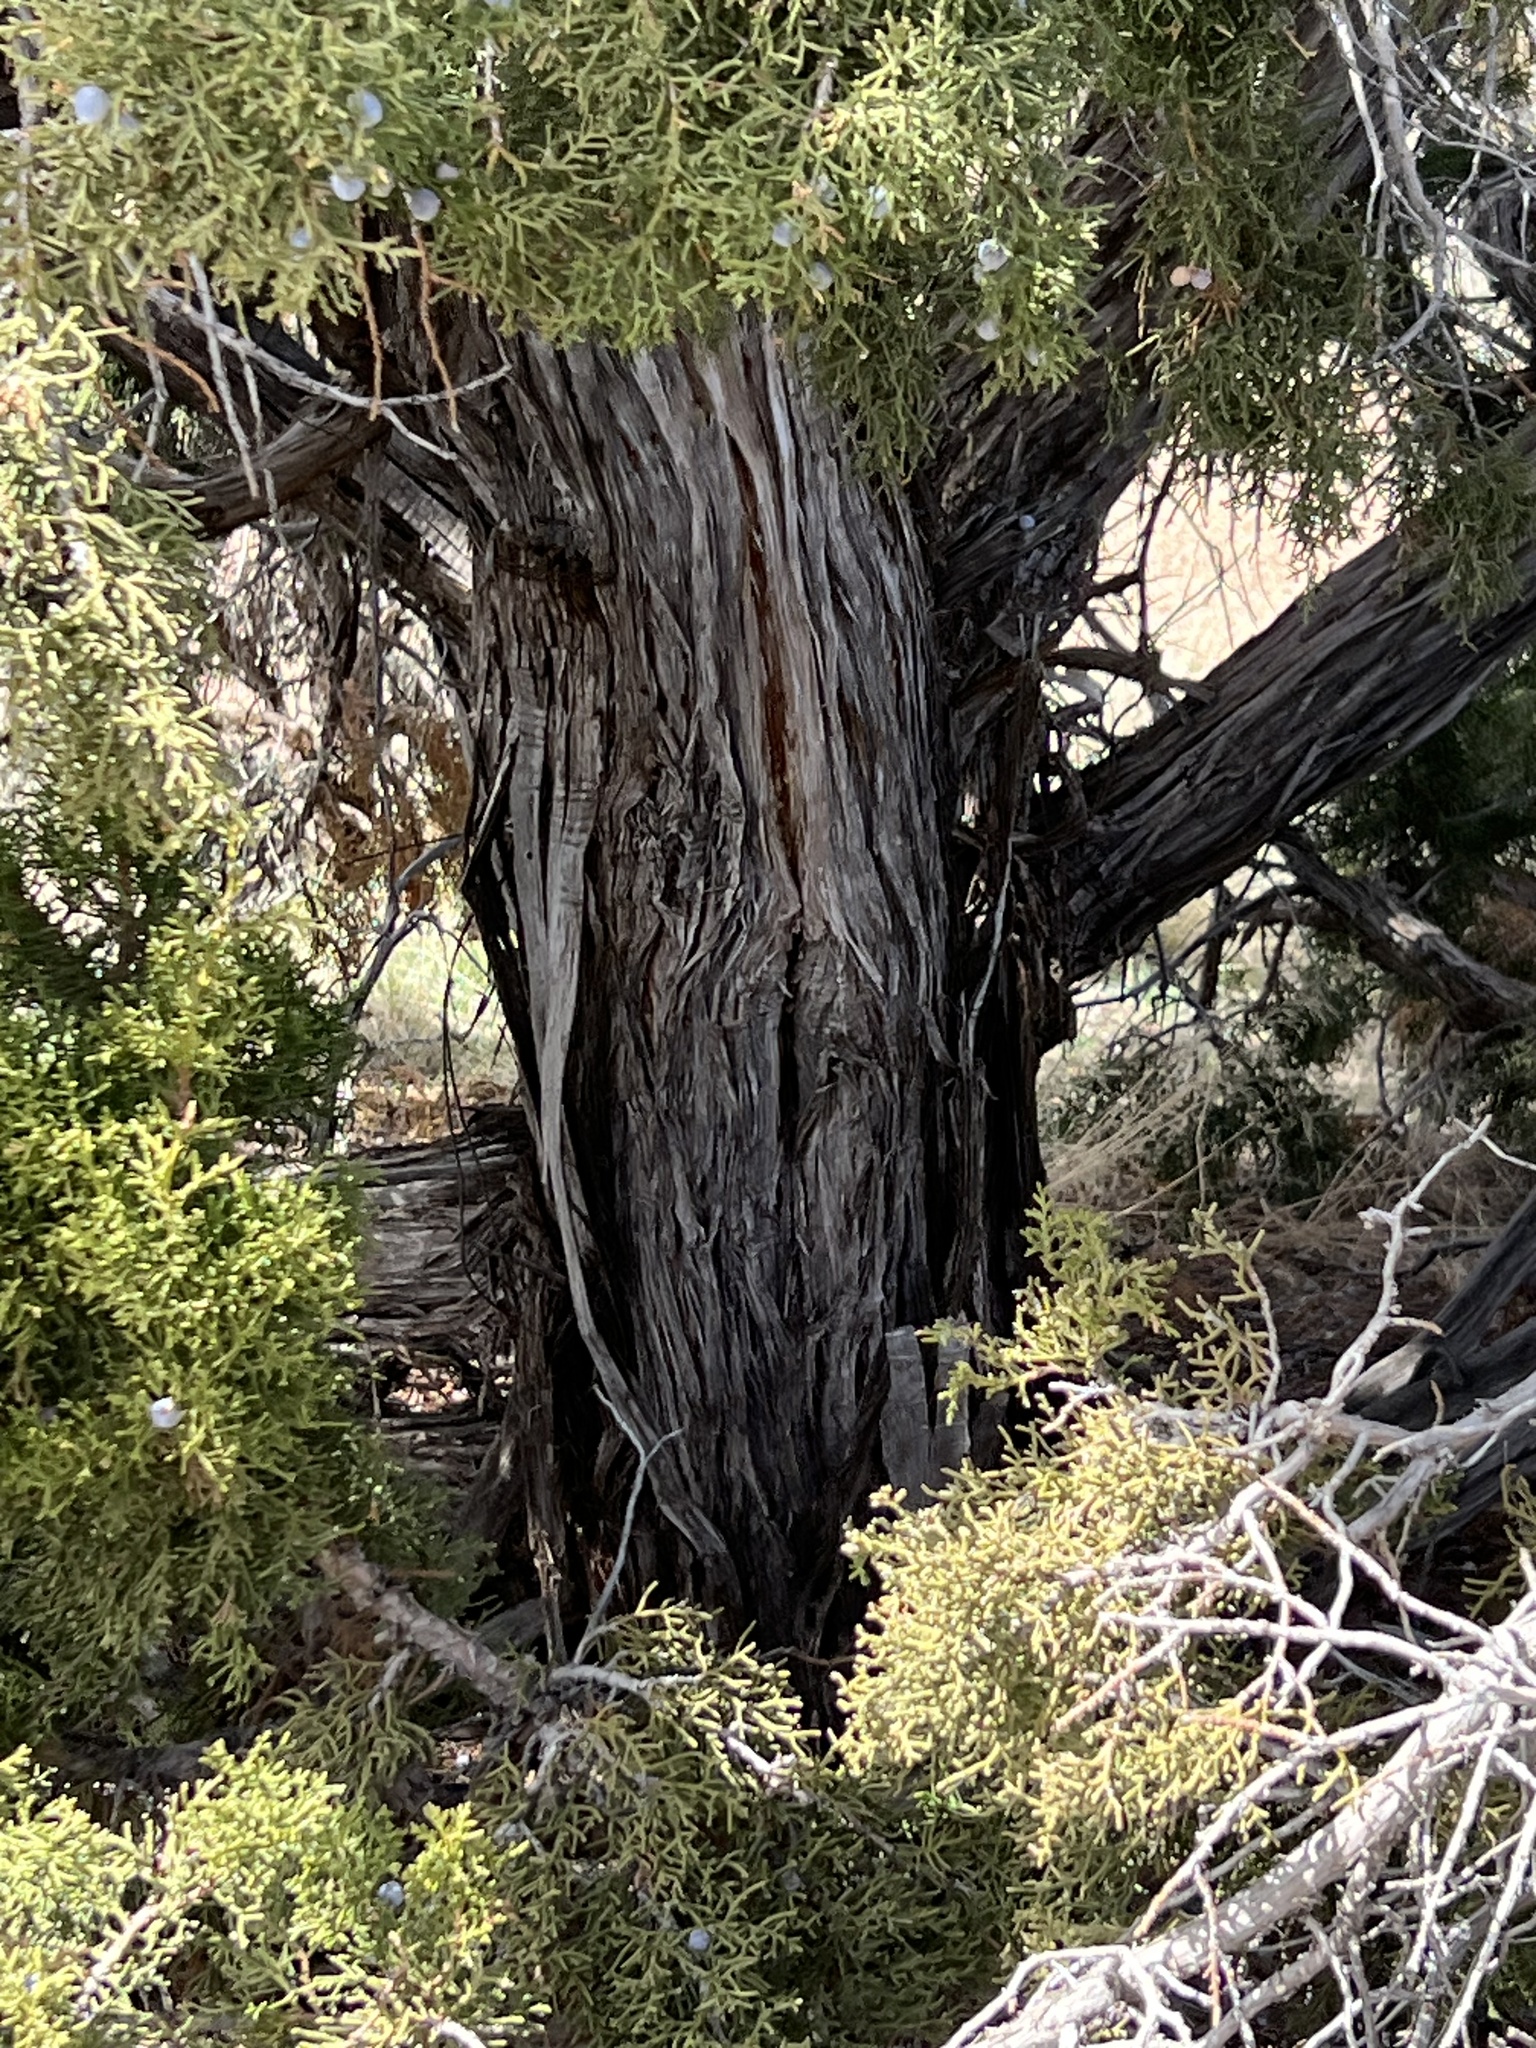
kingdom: Plantae
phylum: Tracheophyta
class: Pinopsida
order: Pinales
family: Cupressaceae
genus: Juniperus
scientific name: Juniperus osteosperma
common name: Utah juniper
